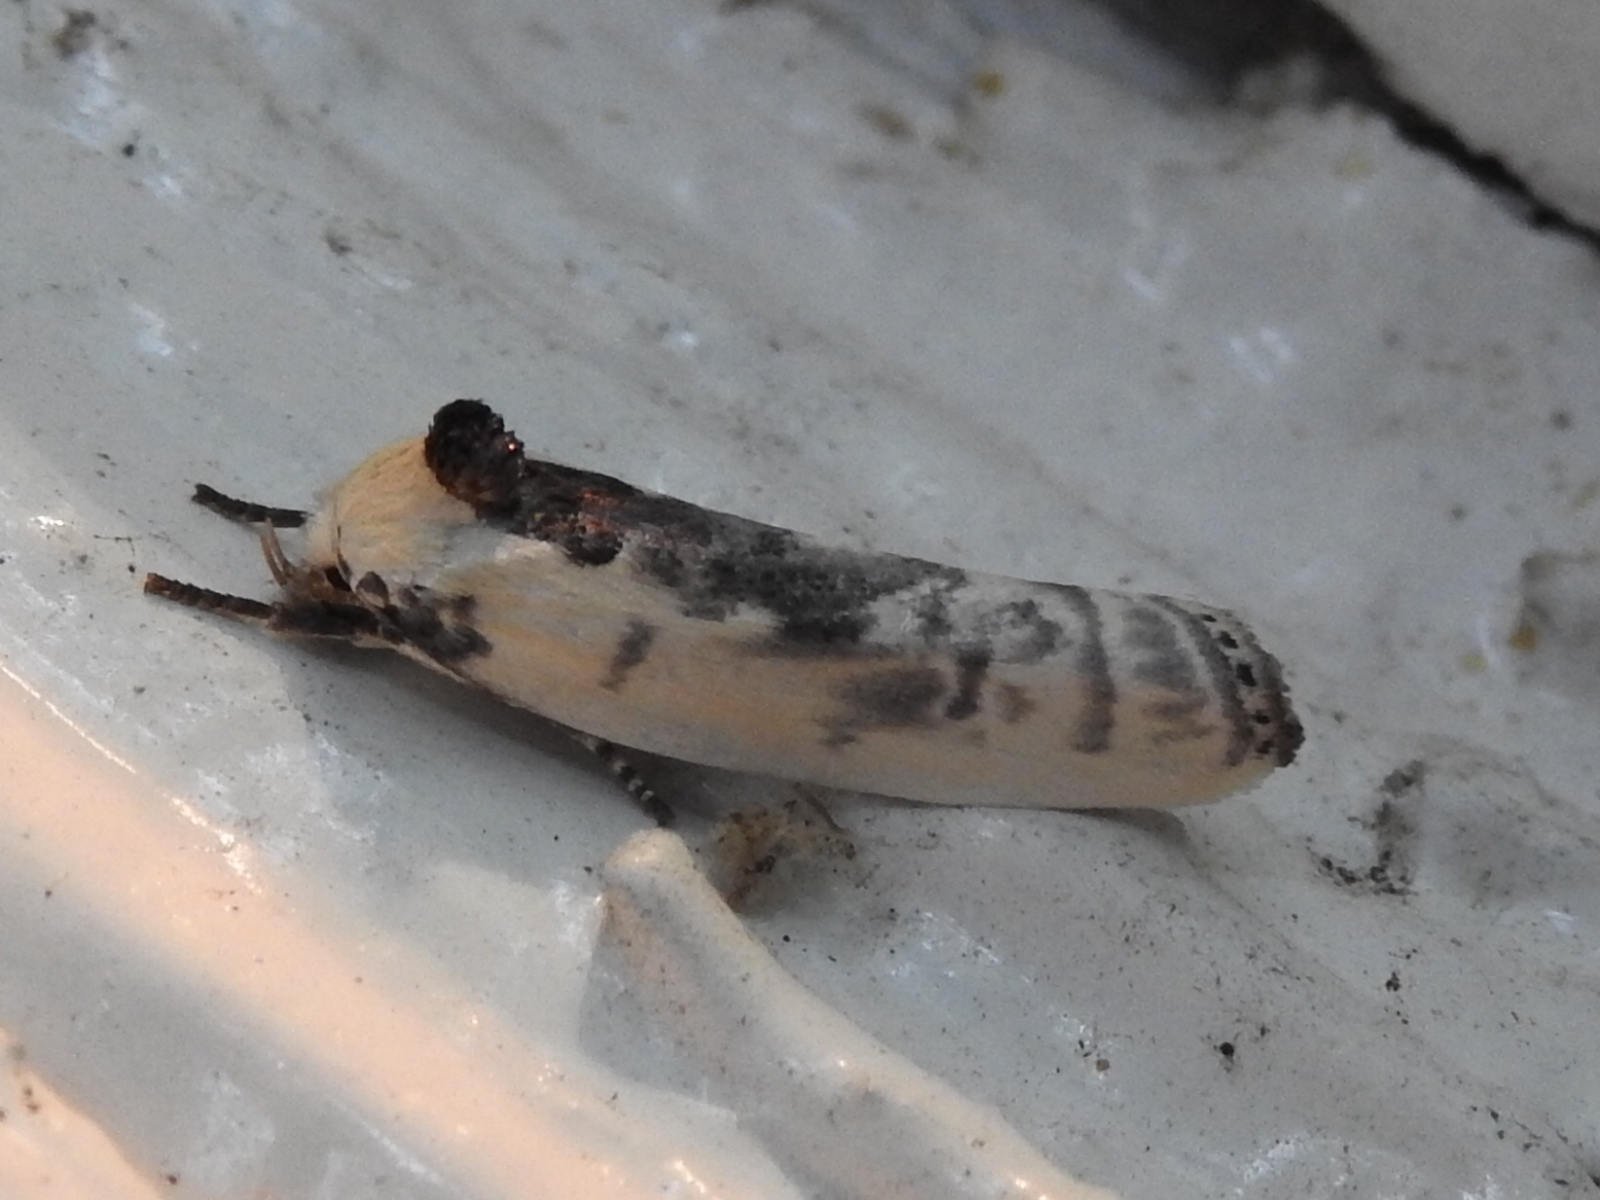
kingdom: Animalia
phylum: Arthropoda
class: Insecta
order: Lepidoptera
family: Depressariidae
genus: Antaeotricha
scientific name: Antaeotricha leucillana
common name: Pale gray bird-dropping moth
